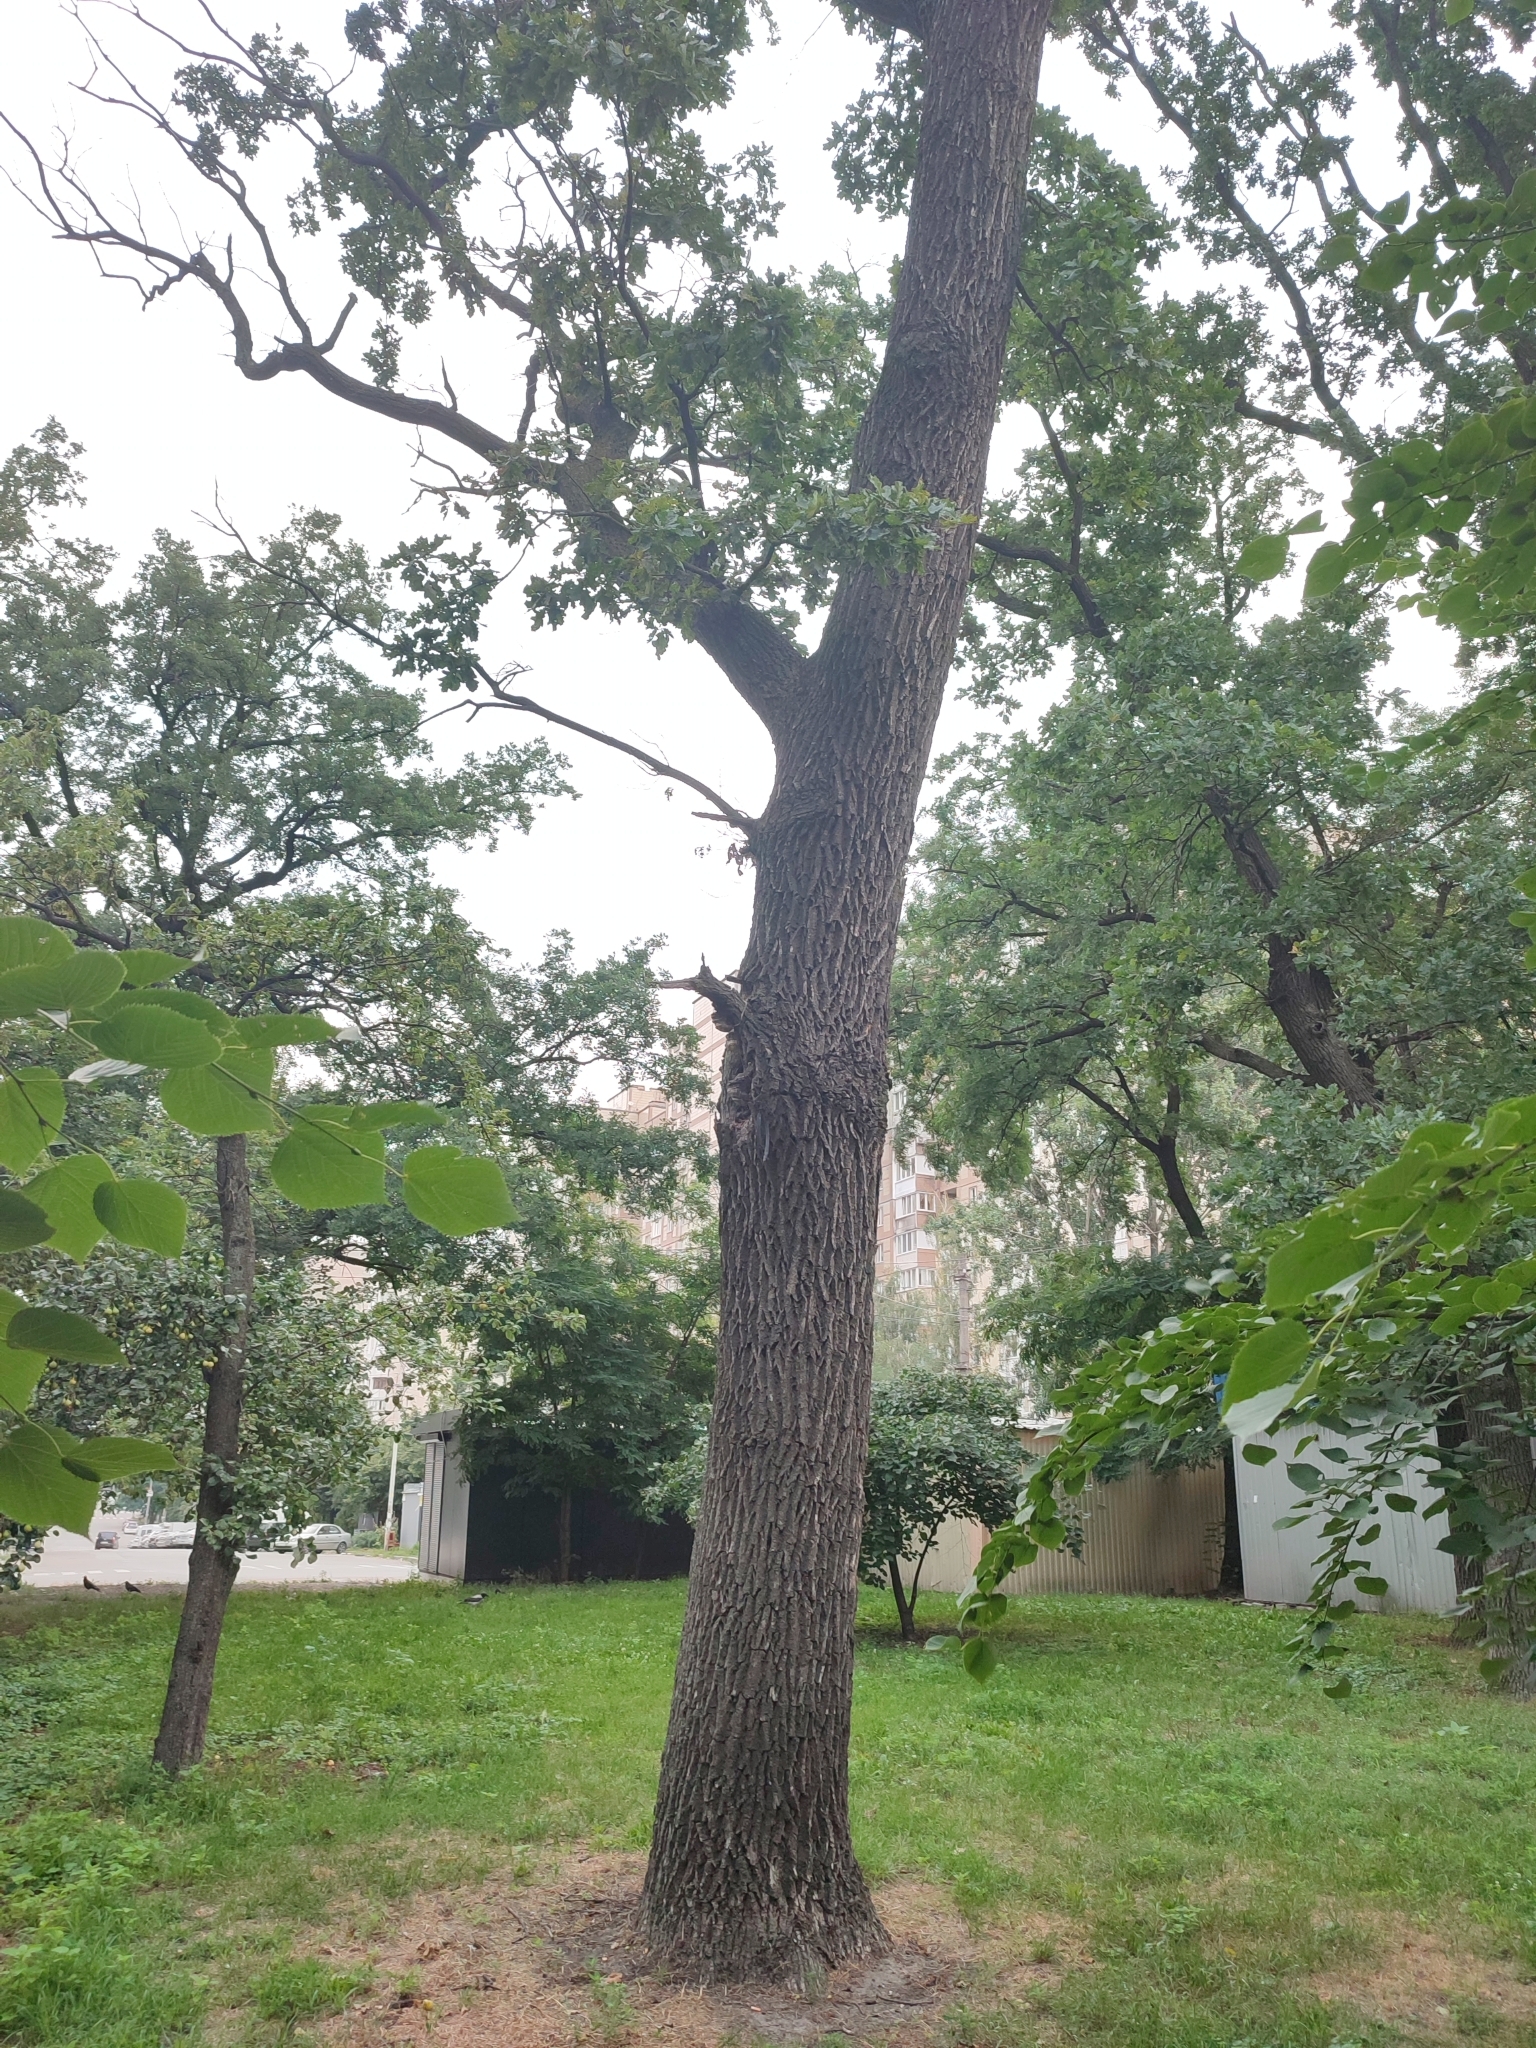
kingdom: Plantae
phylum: Tracheophyta
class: Magnoliopsida
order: Fagales
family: Fagaceae
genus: Quercus
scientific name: Quercus robur
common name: Pedunculate oak
